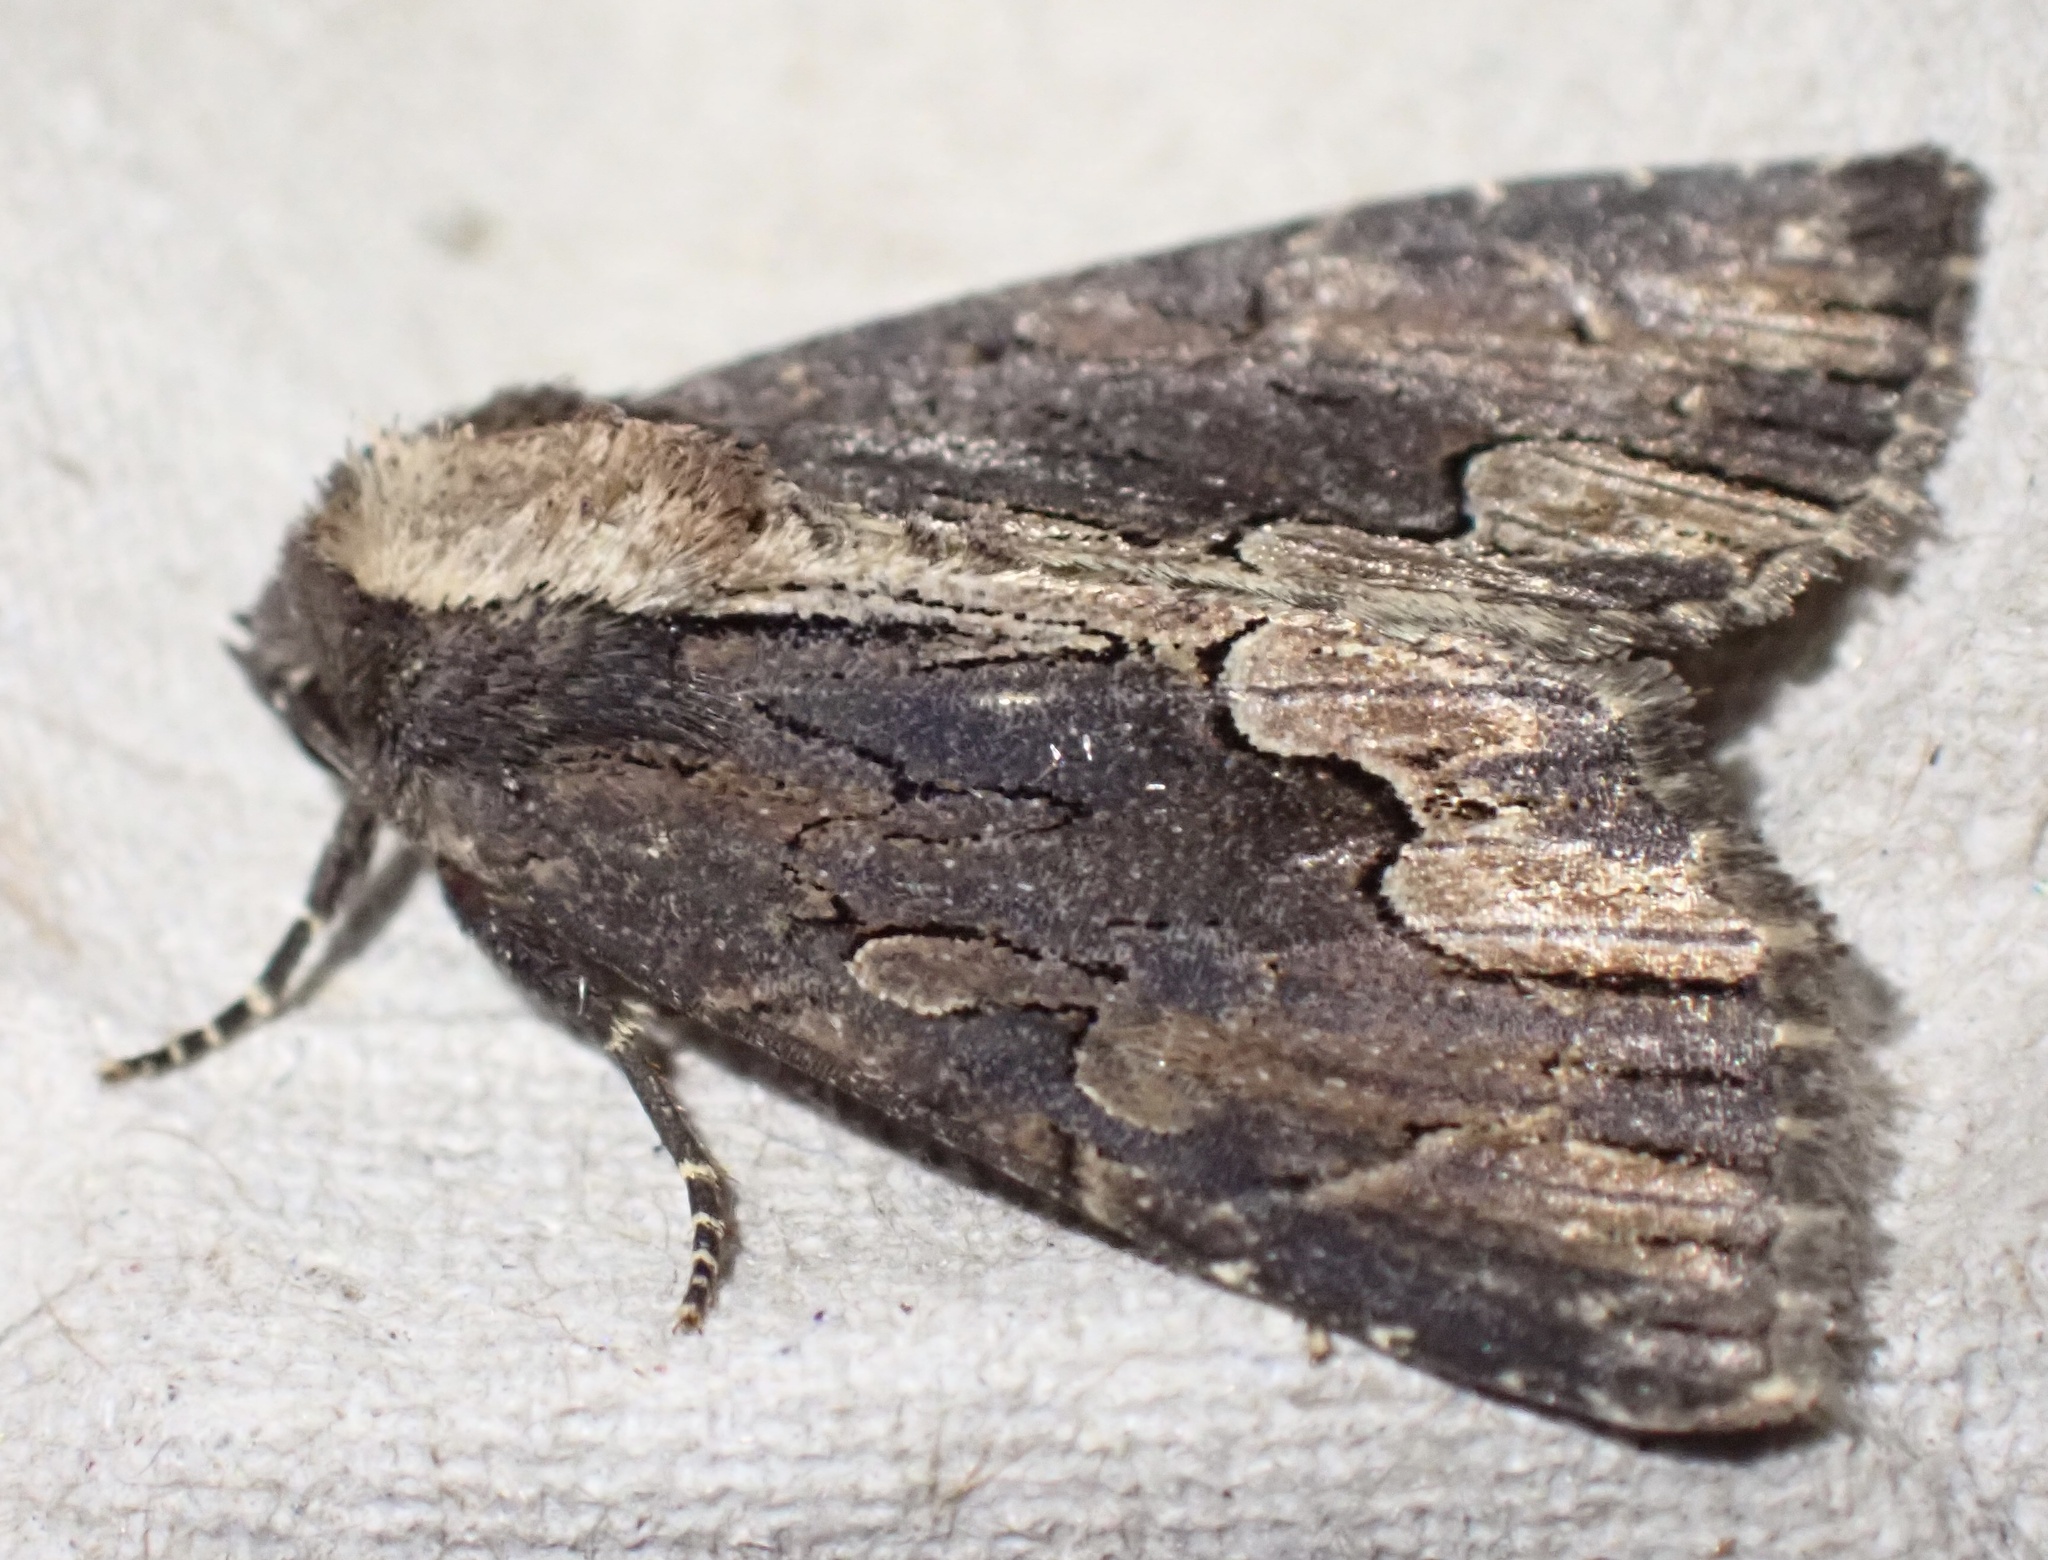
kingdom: Animalia
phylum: Arthropoda
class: Insecta
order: Lepidoptera
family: Noctuidae
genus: Dypterygia
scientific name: Dypterygia scabriuscula
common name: Bird's wing
